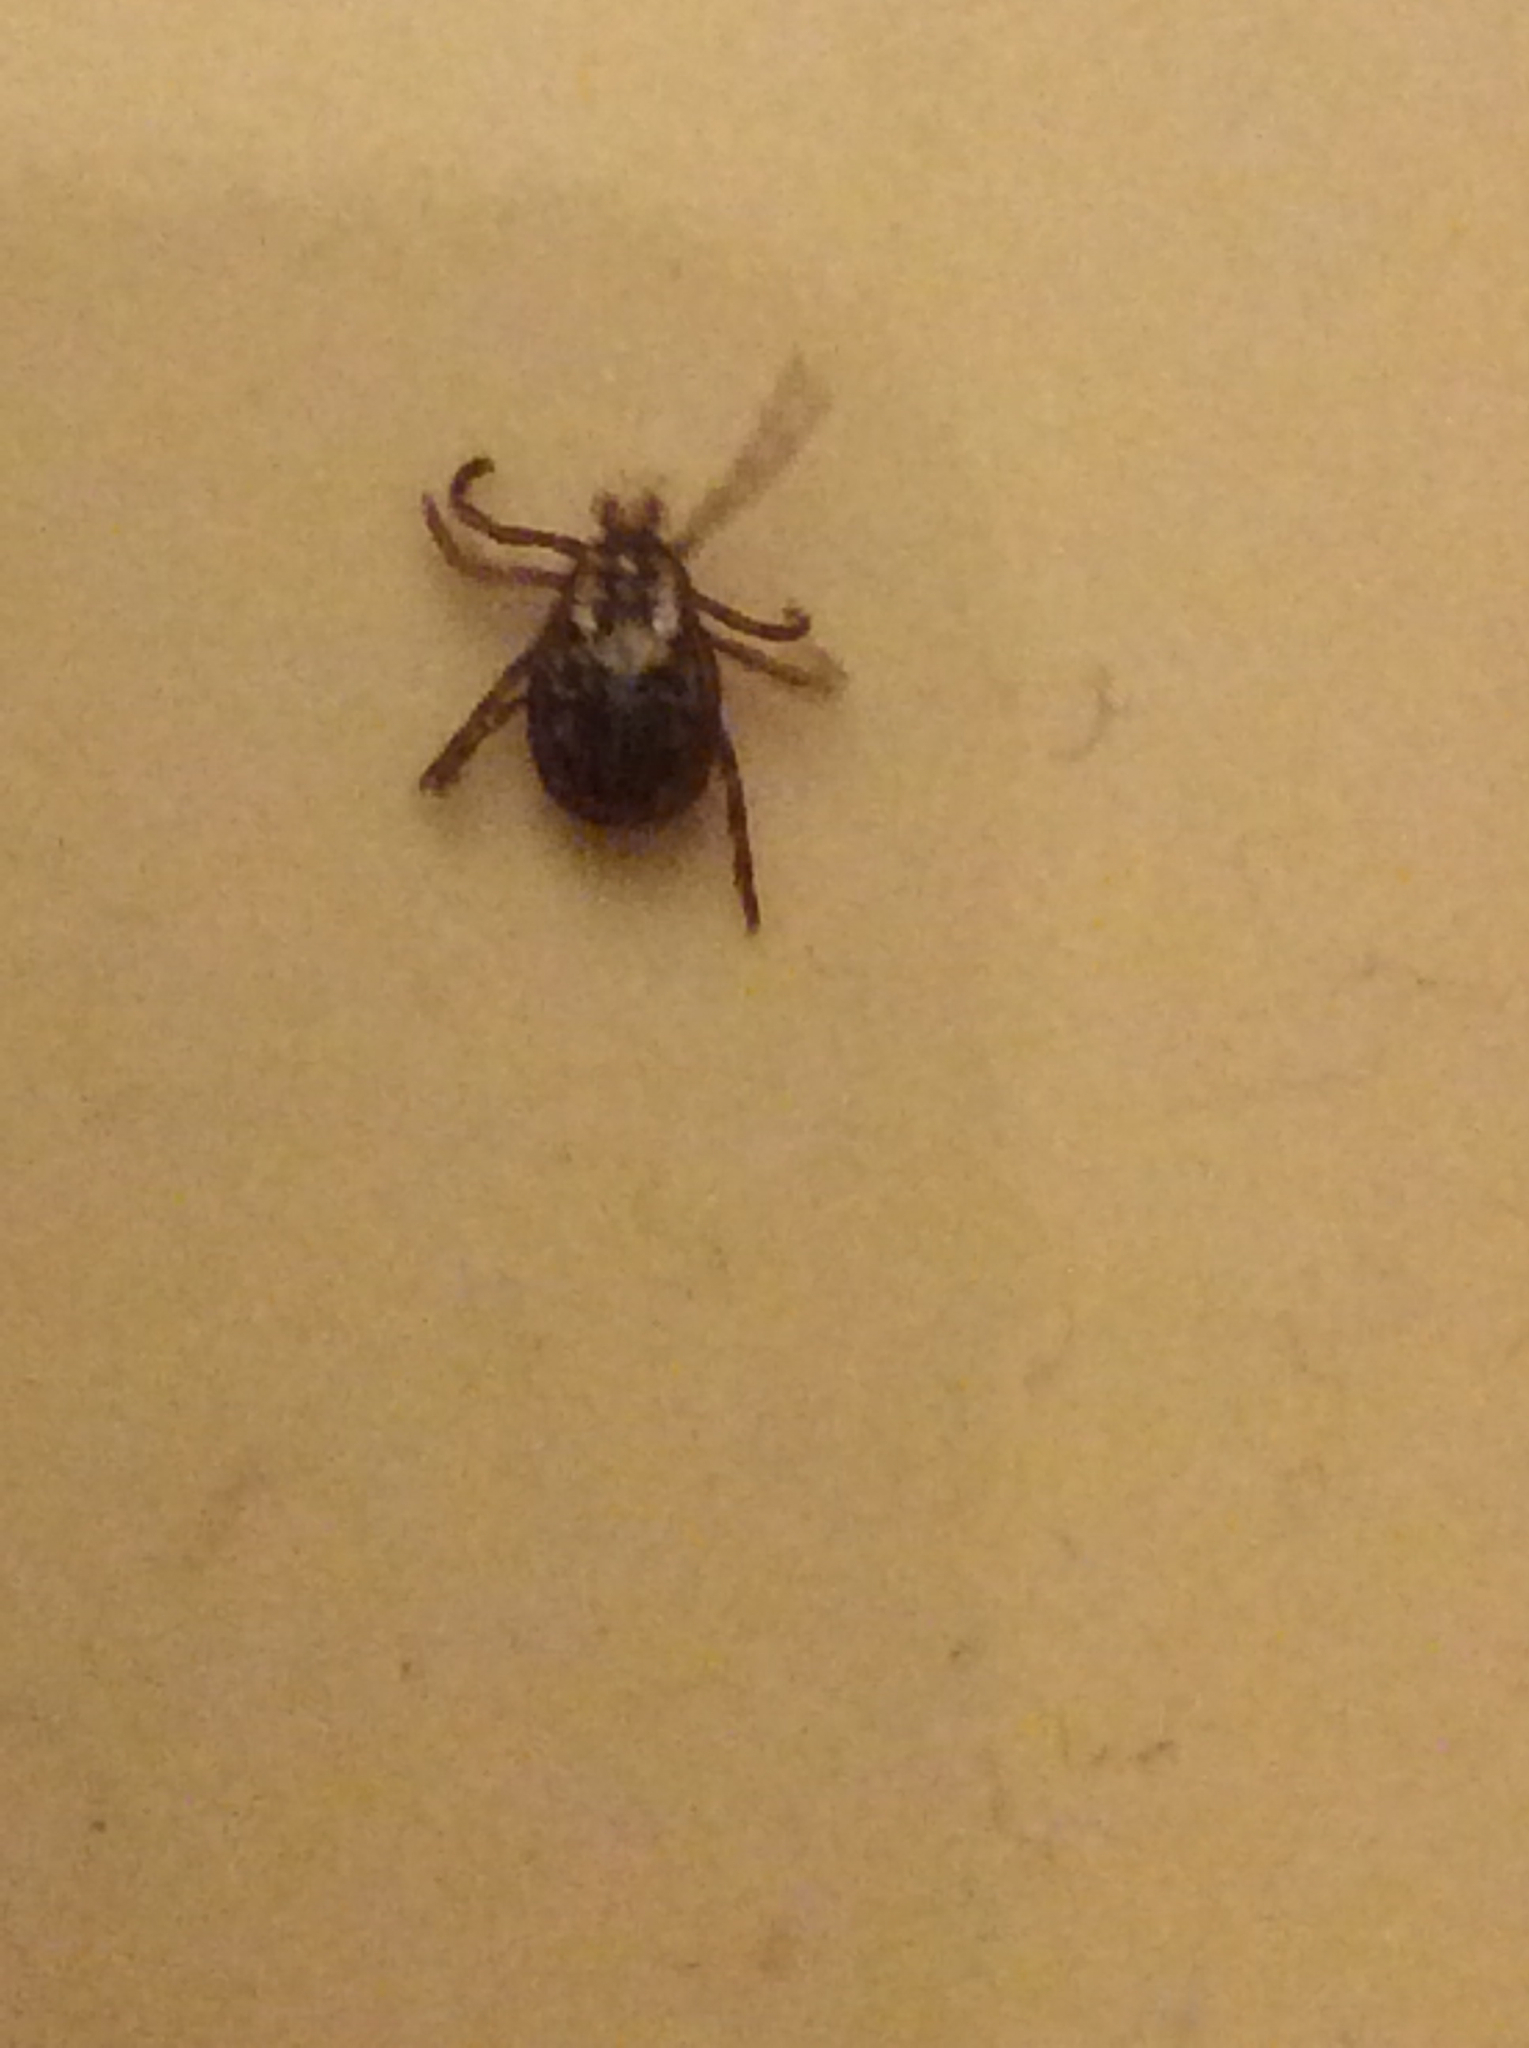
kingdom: Animalia
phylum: Arthropoda
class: Arachnida
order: Ixodida
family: Ixodidae
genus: Dermacentor
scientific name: Dermacentor variabilis
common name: American dog tick
